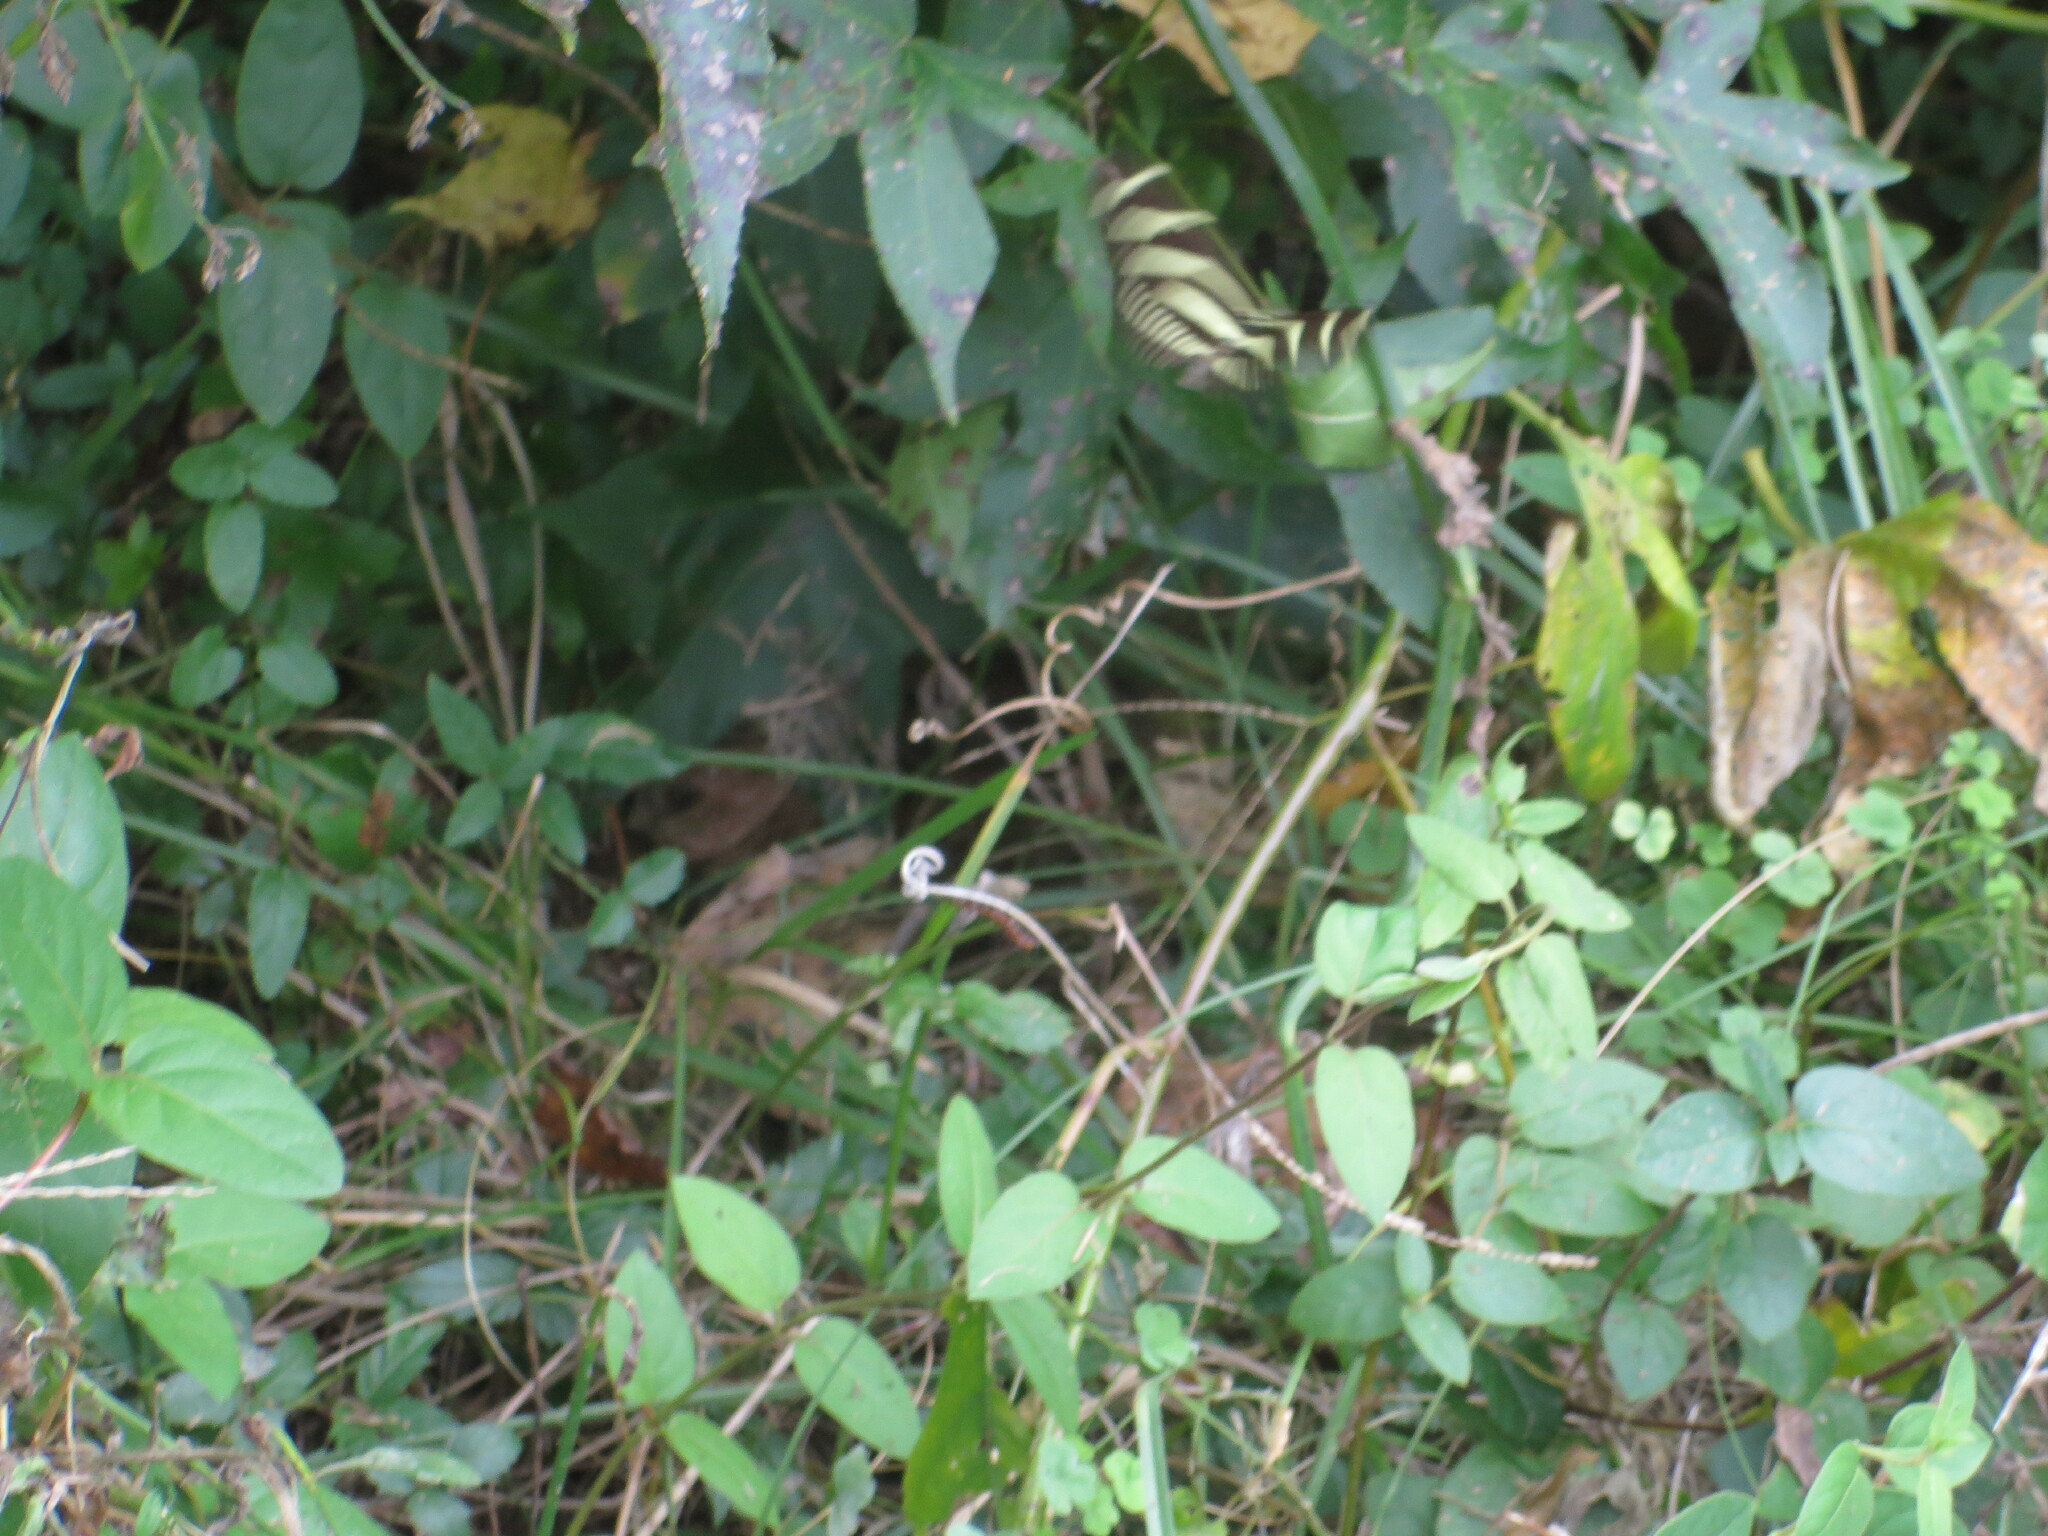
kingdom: Animalia
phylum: Arthropoda
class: Insecta
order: Lepidoptera
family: Nymphalidae
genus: Heliconius
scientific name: Heliconius charithonia
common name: Zebra long wing
